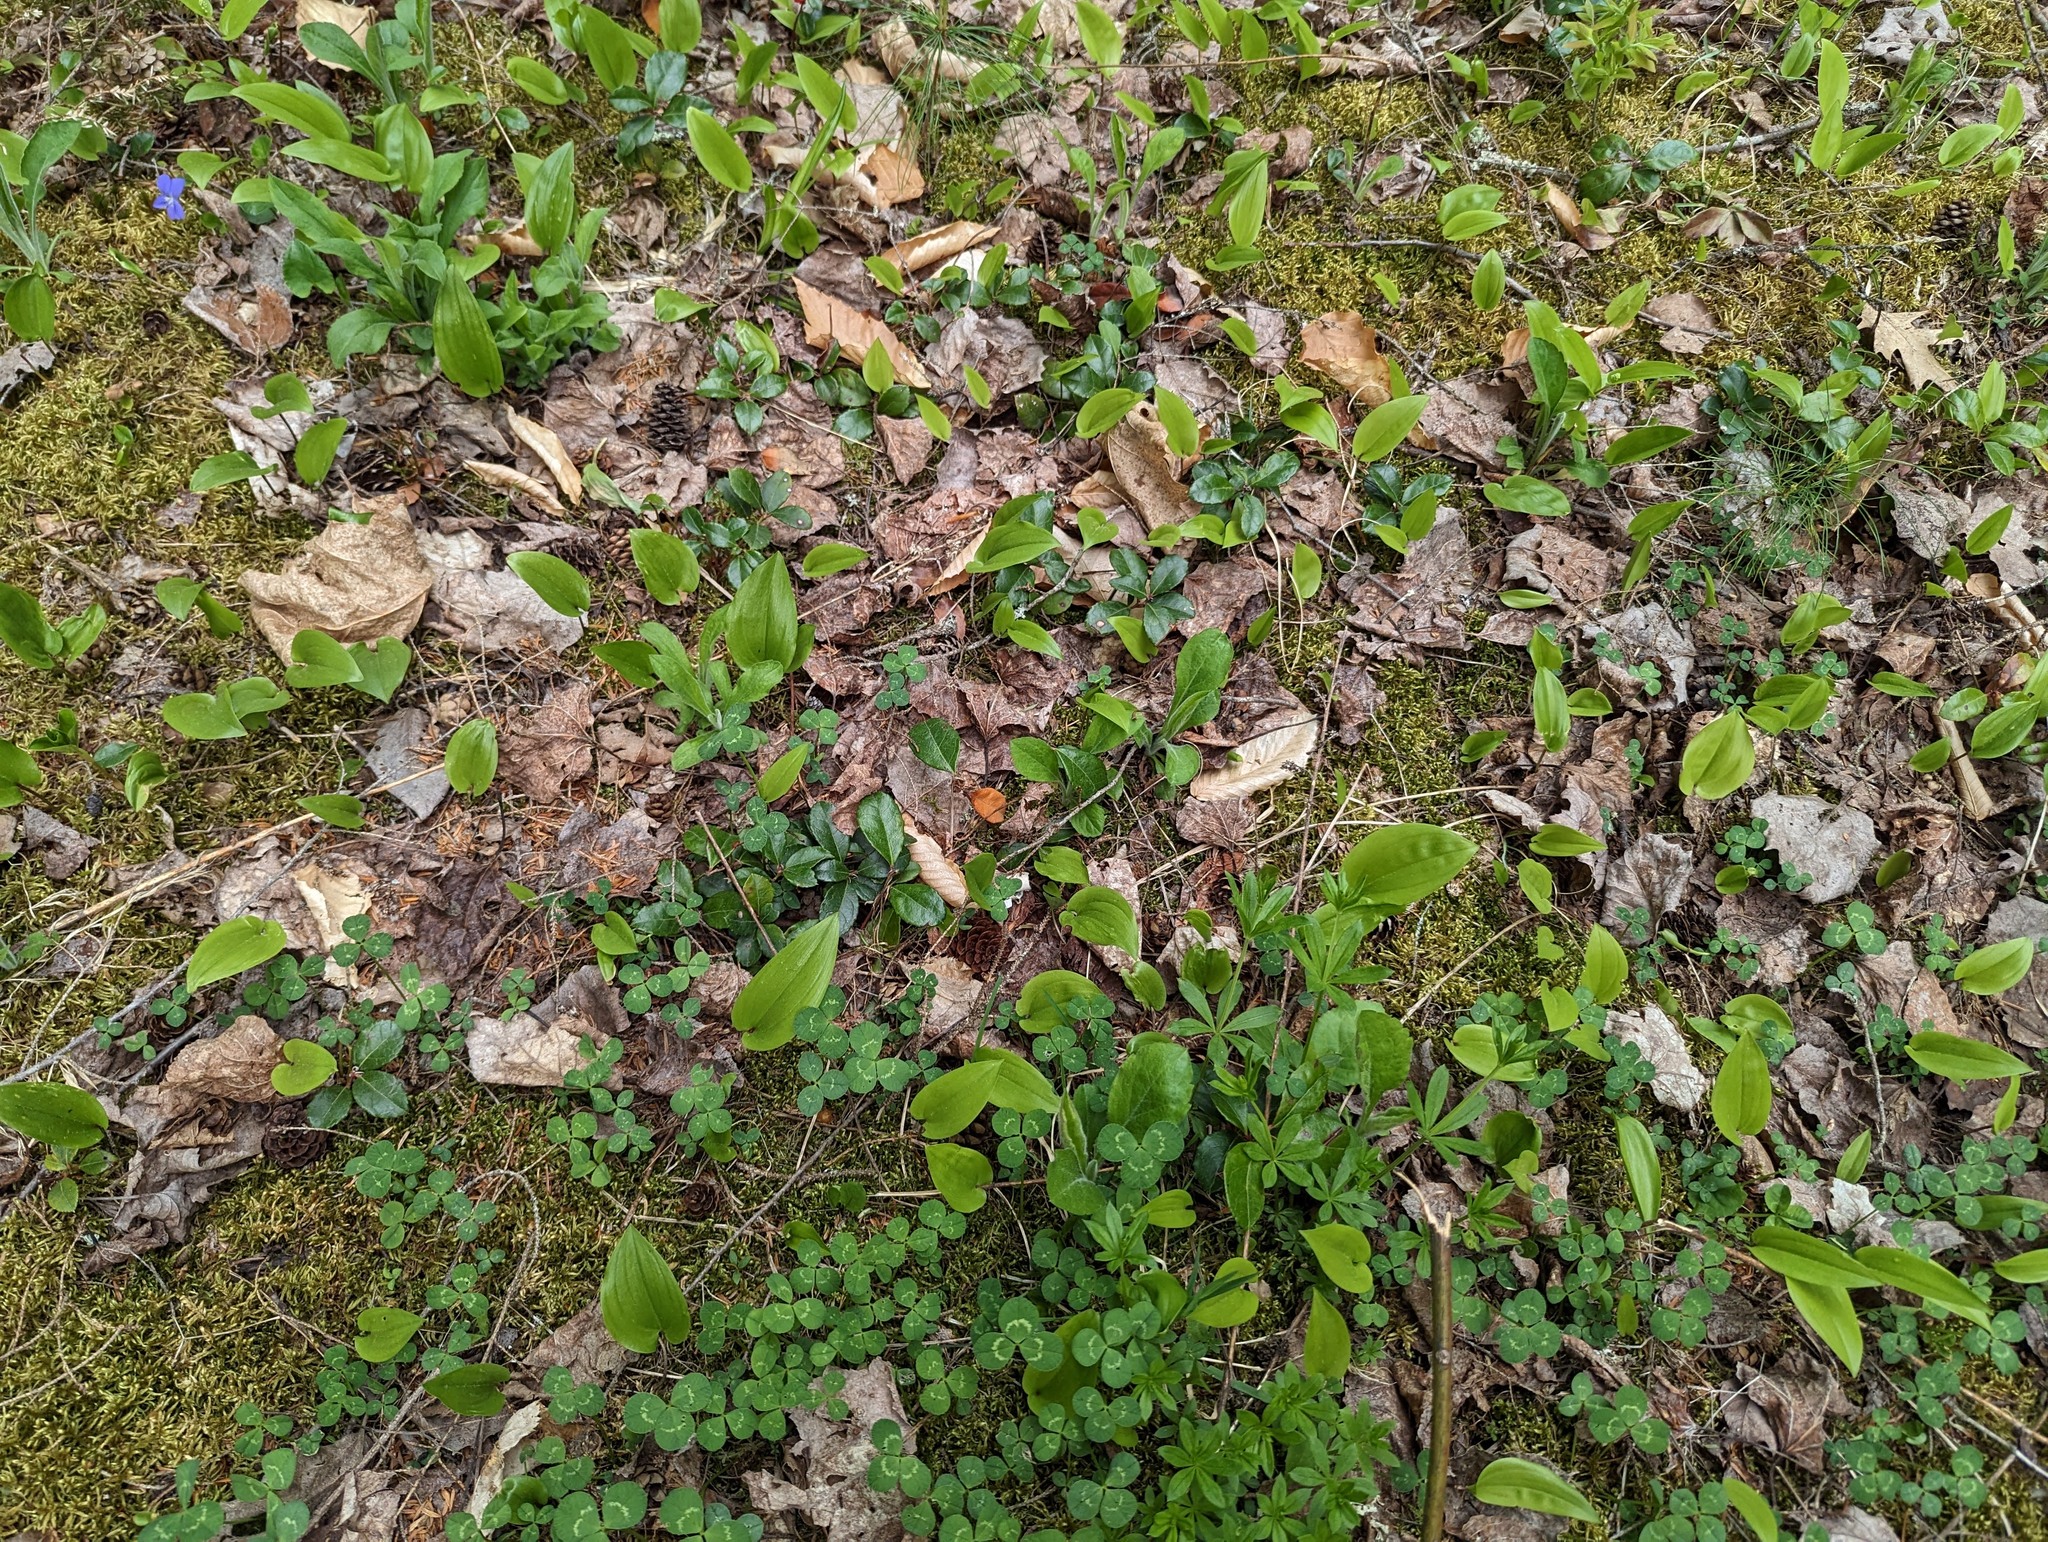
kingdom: Plantae
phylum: Tracheophyta
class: Magnoliopsida
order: Ericales
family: Ericaceae
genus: Gaultheria
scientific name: Gaultheria procumbens
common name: Checkerberry
